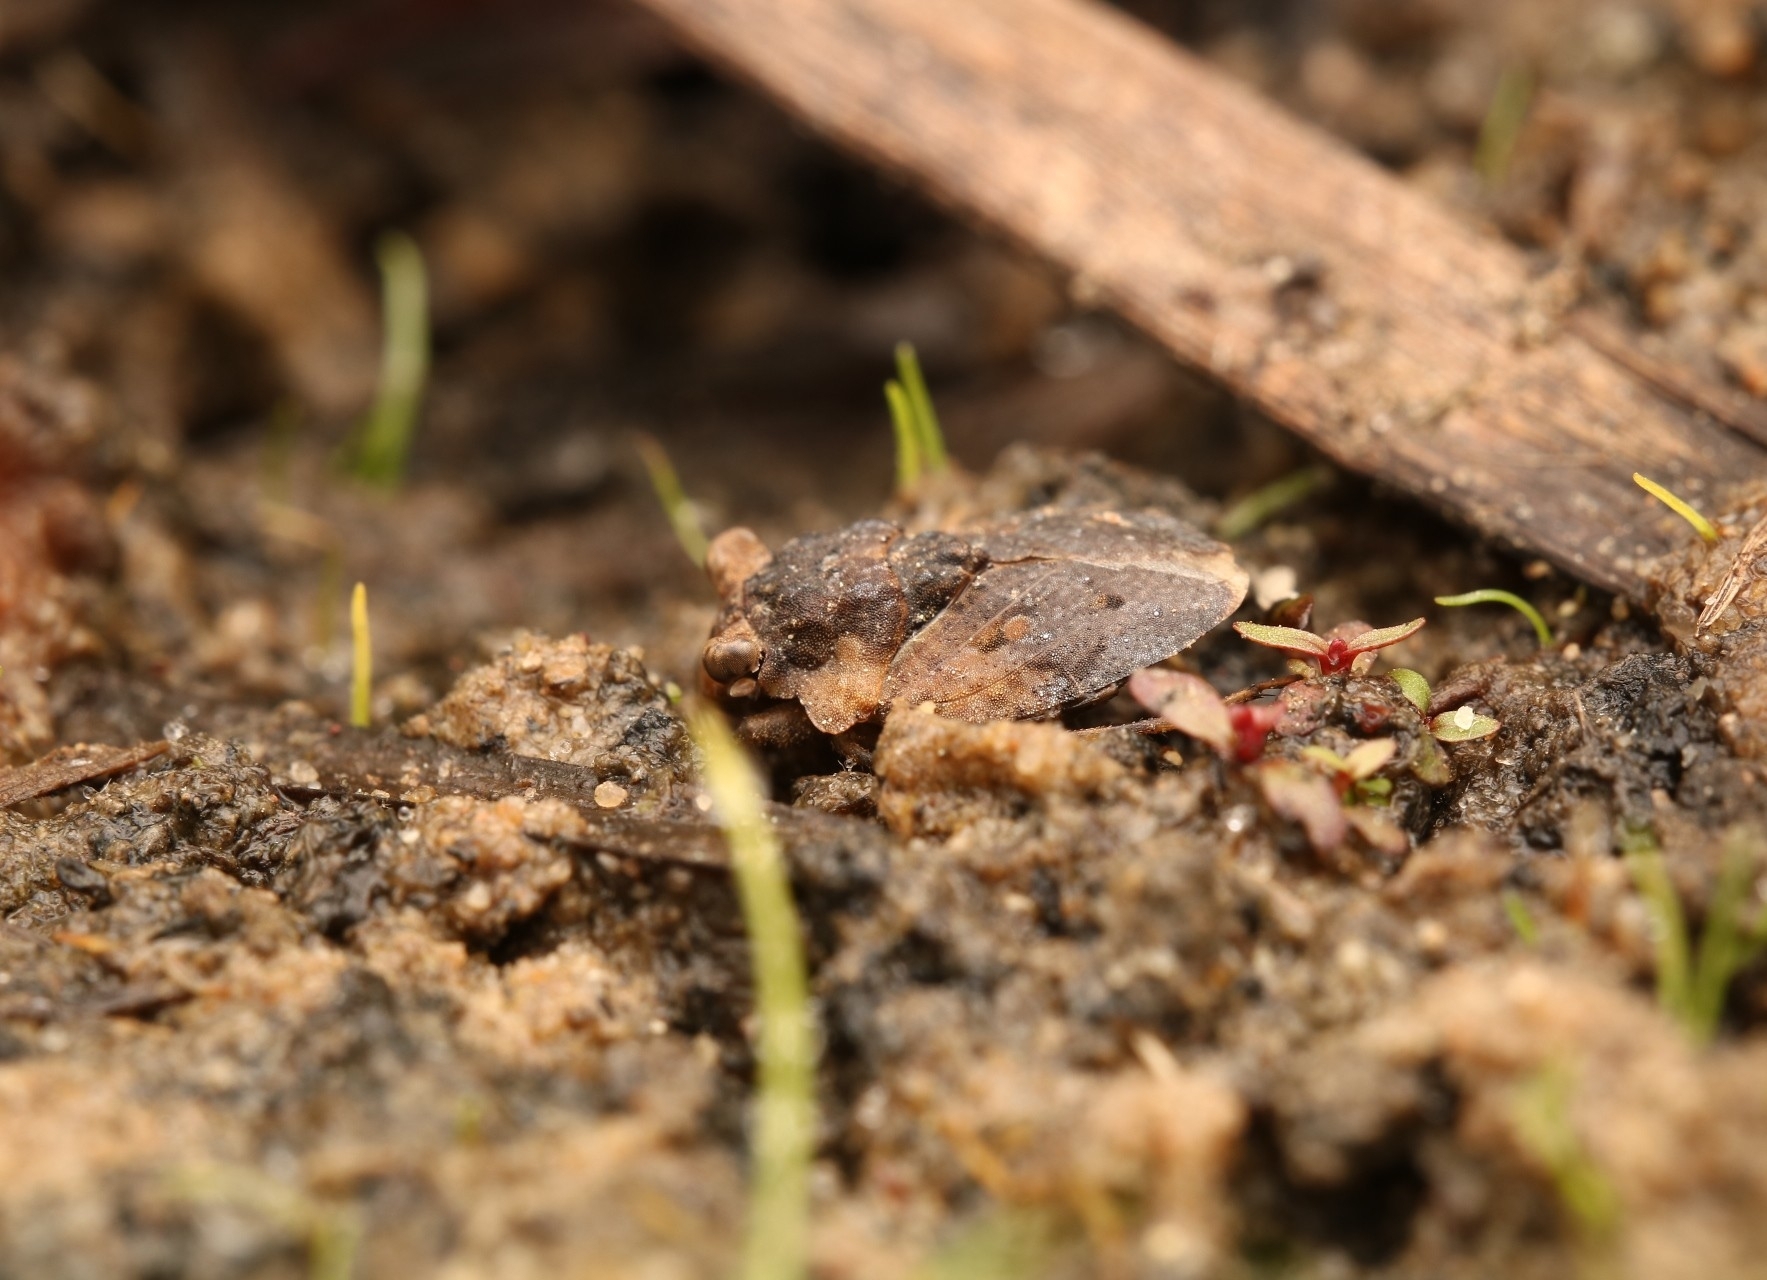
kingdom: Animalia
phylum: Arthropoda
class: Insecta
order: Hemiptera
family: Gelastocoridae
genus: Gelastocoris
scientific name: Gelastocoris oculatus
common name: Toad bug
